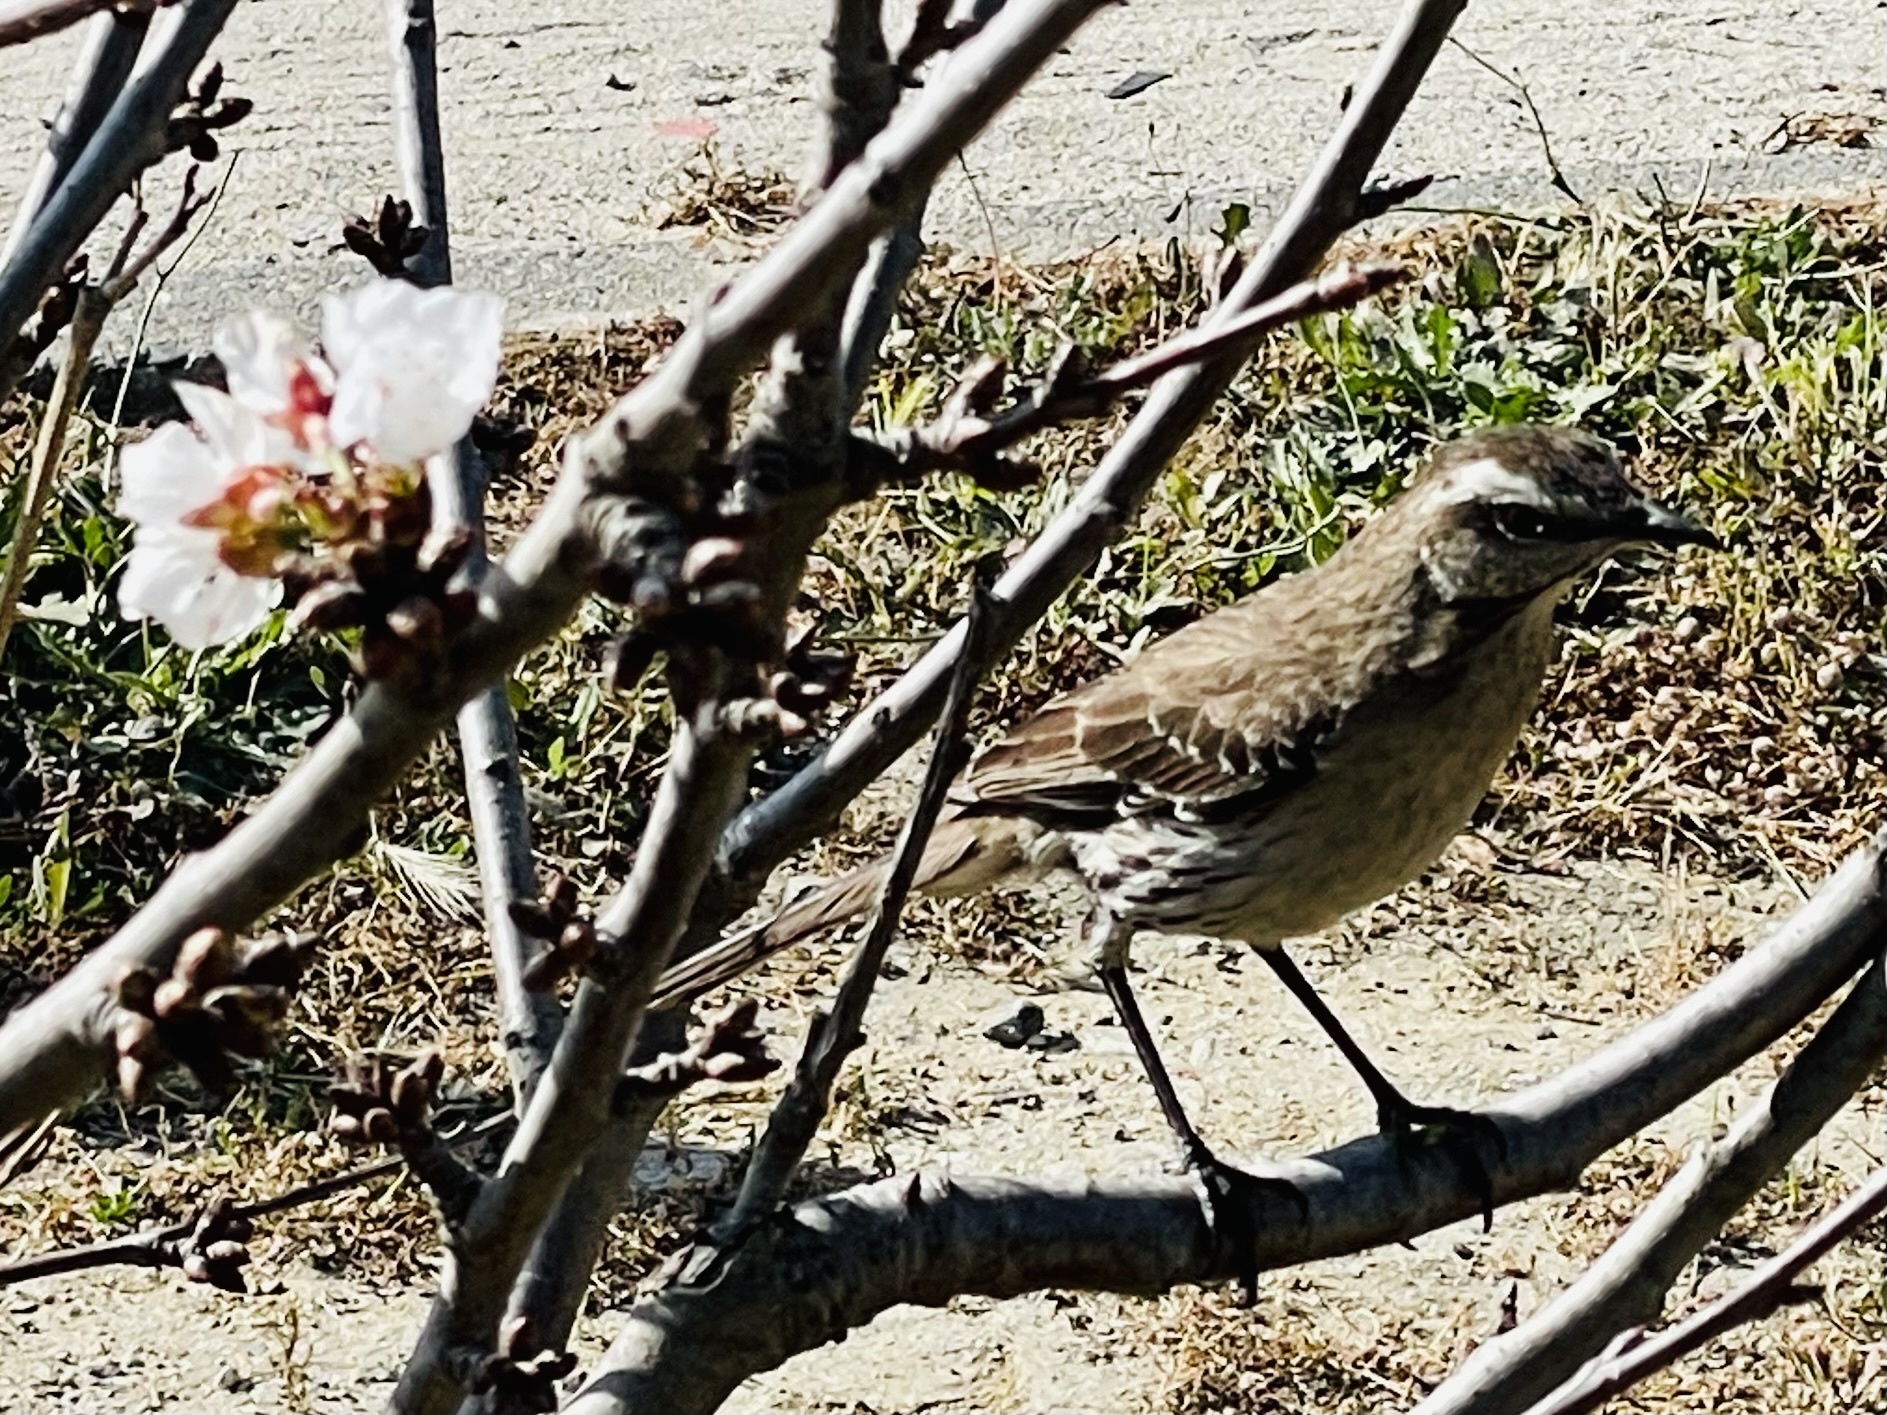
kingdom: Animalia
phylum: Chordata
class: Aves
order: Passeriformes
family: Mimidae
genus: Mimus
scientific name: Mimus thenca
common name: Chilean mockingbird
